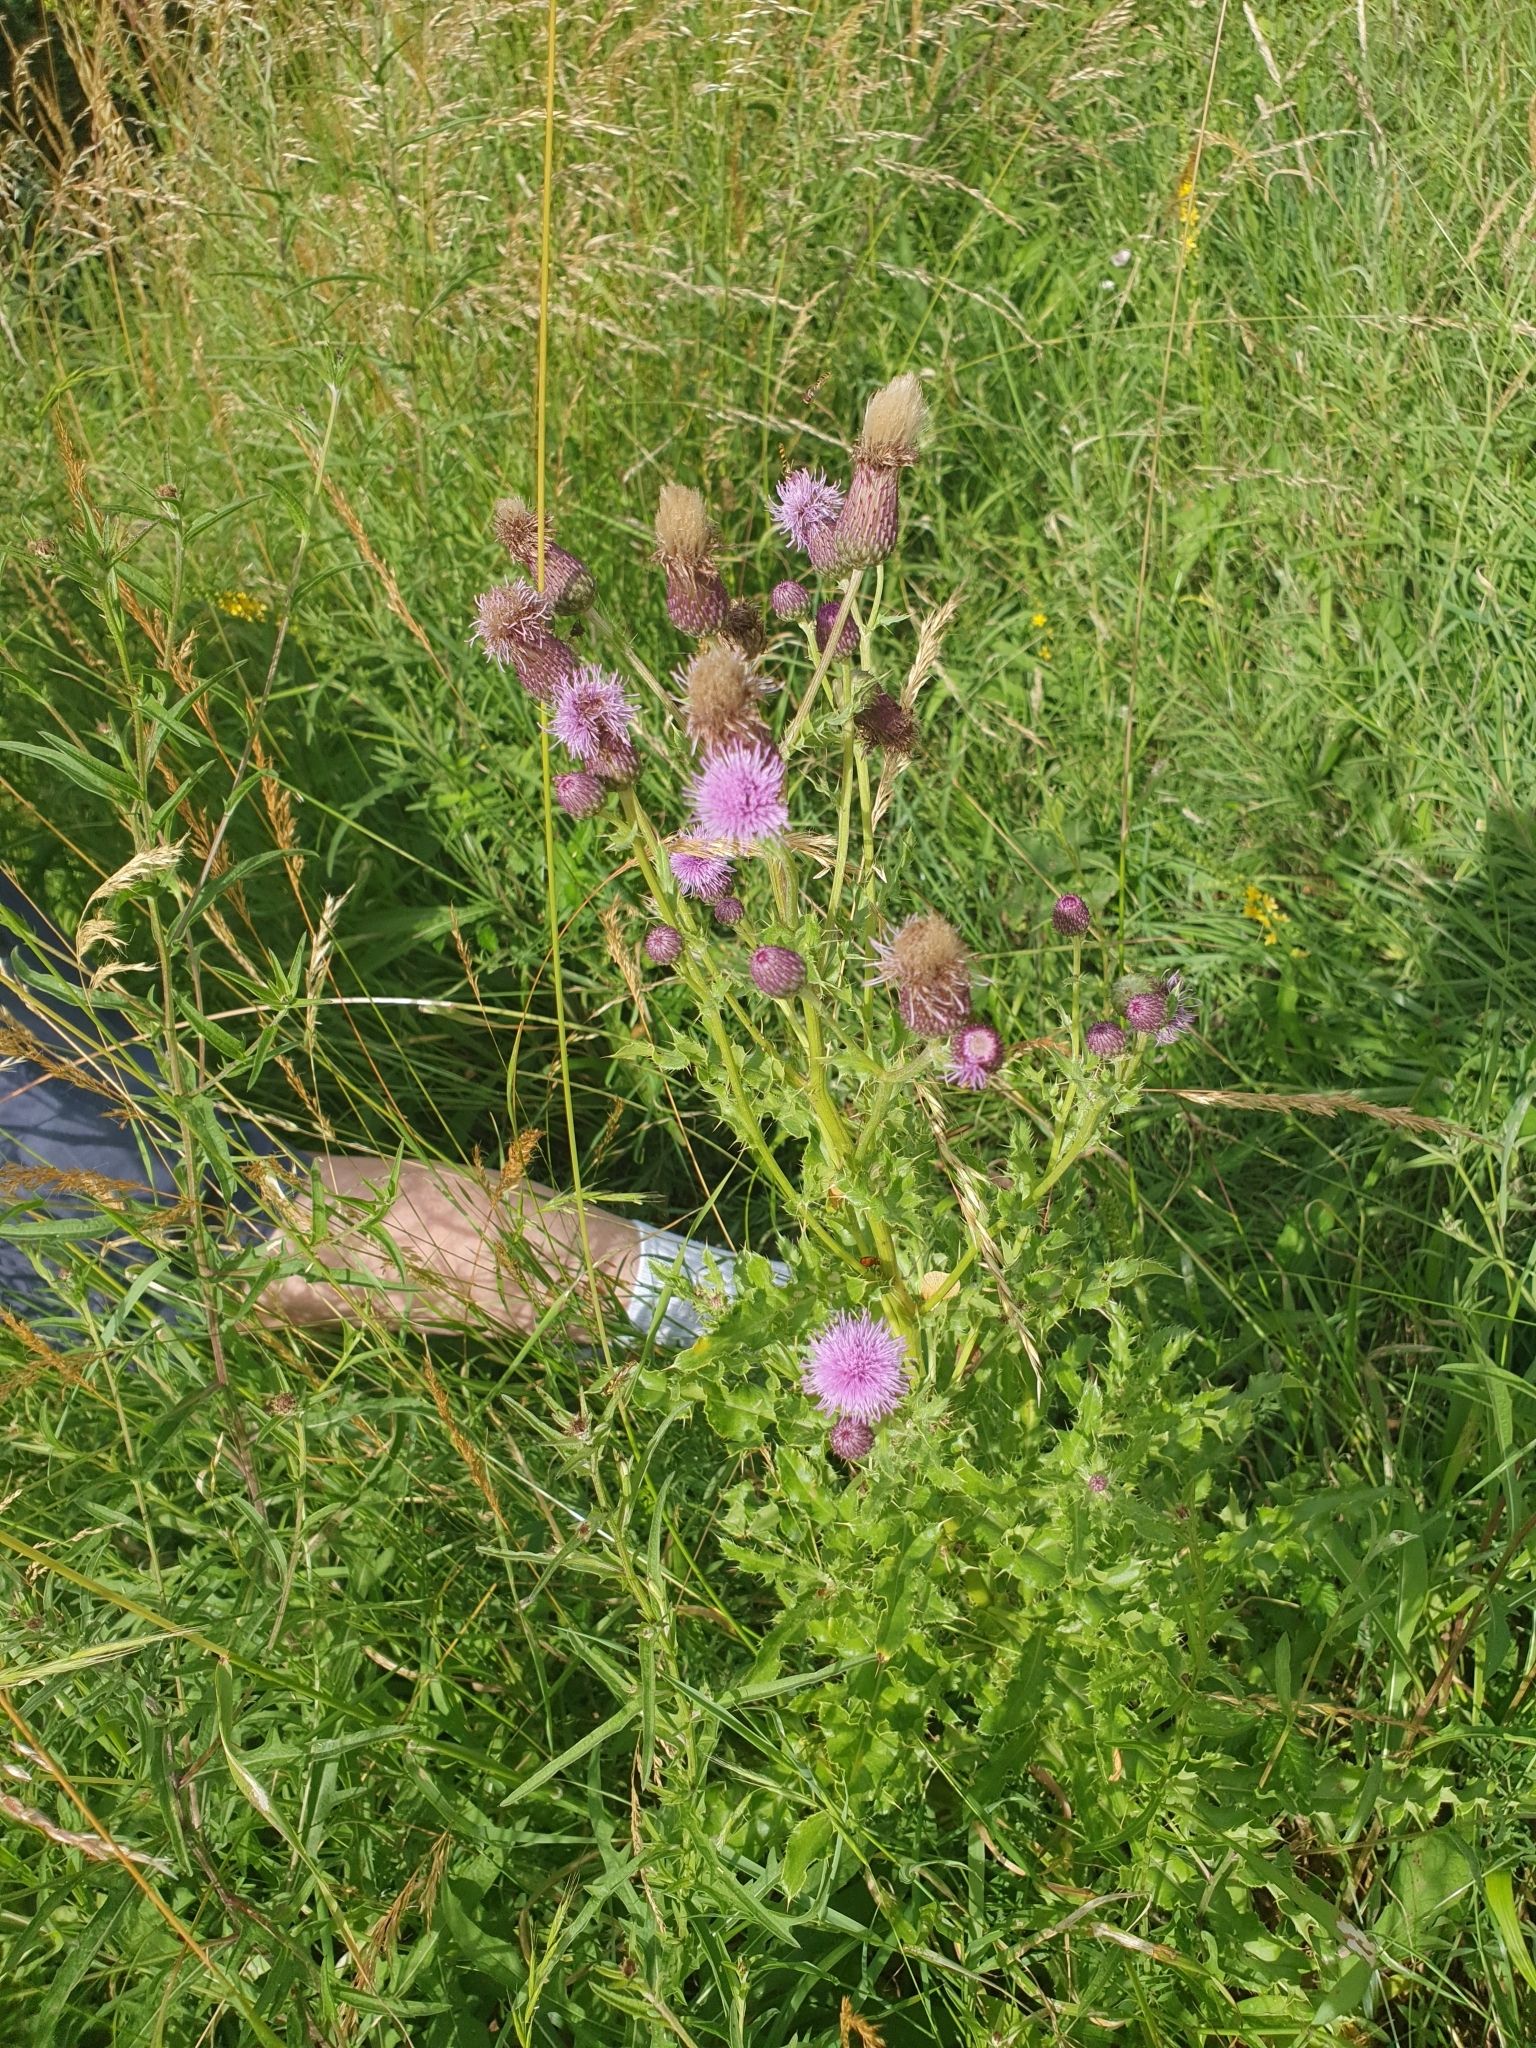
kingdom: Plantae
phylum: Tracheophyta
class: Magnoliopsida
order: Asterales
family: Asteraceae
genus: Cirsium
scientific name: Cirsium arvense
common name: Creeping thistle
